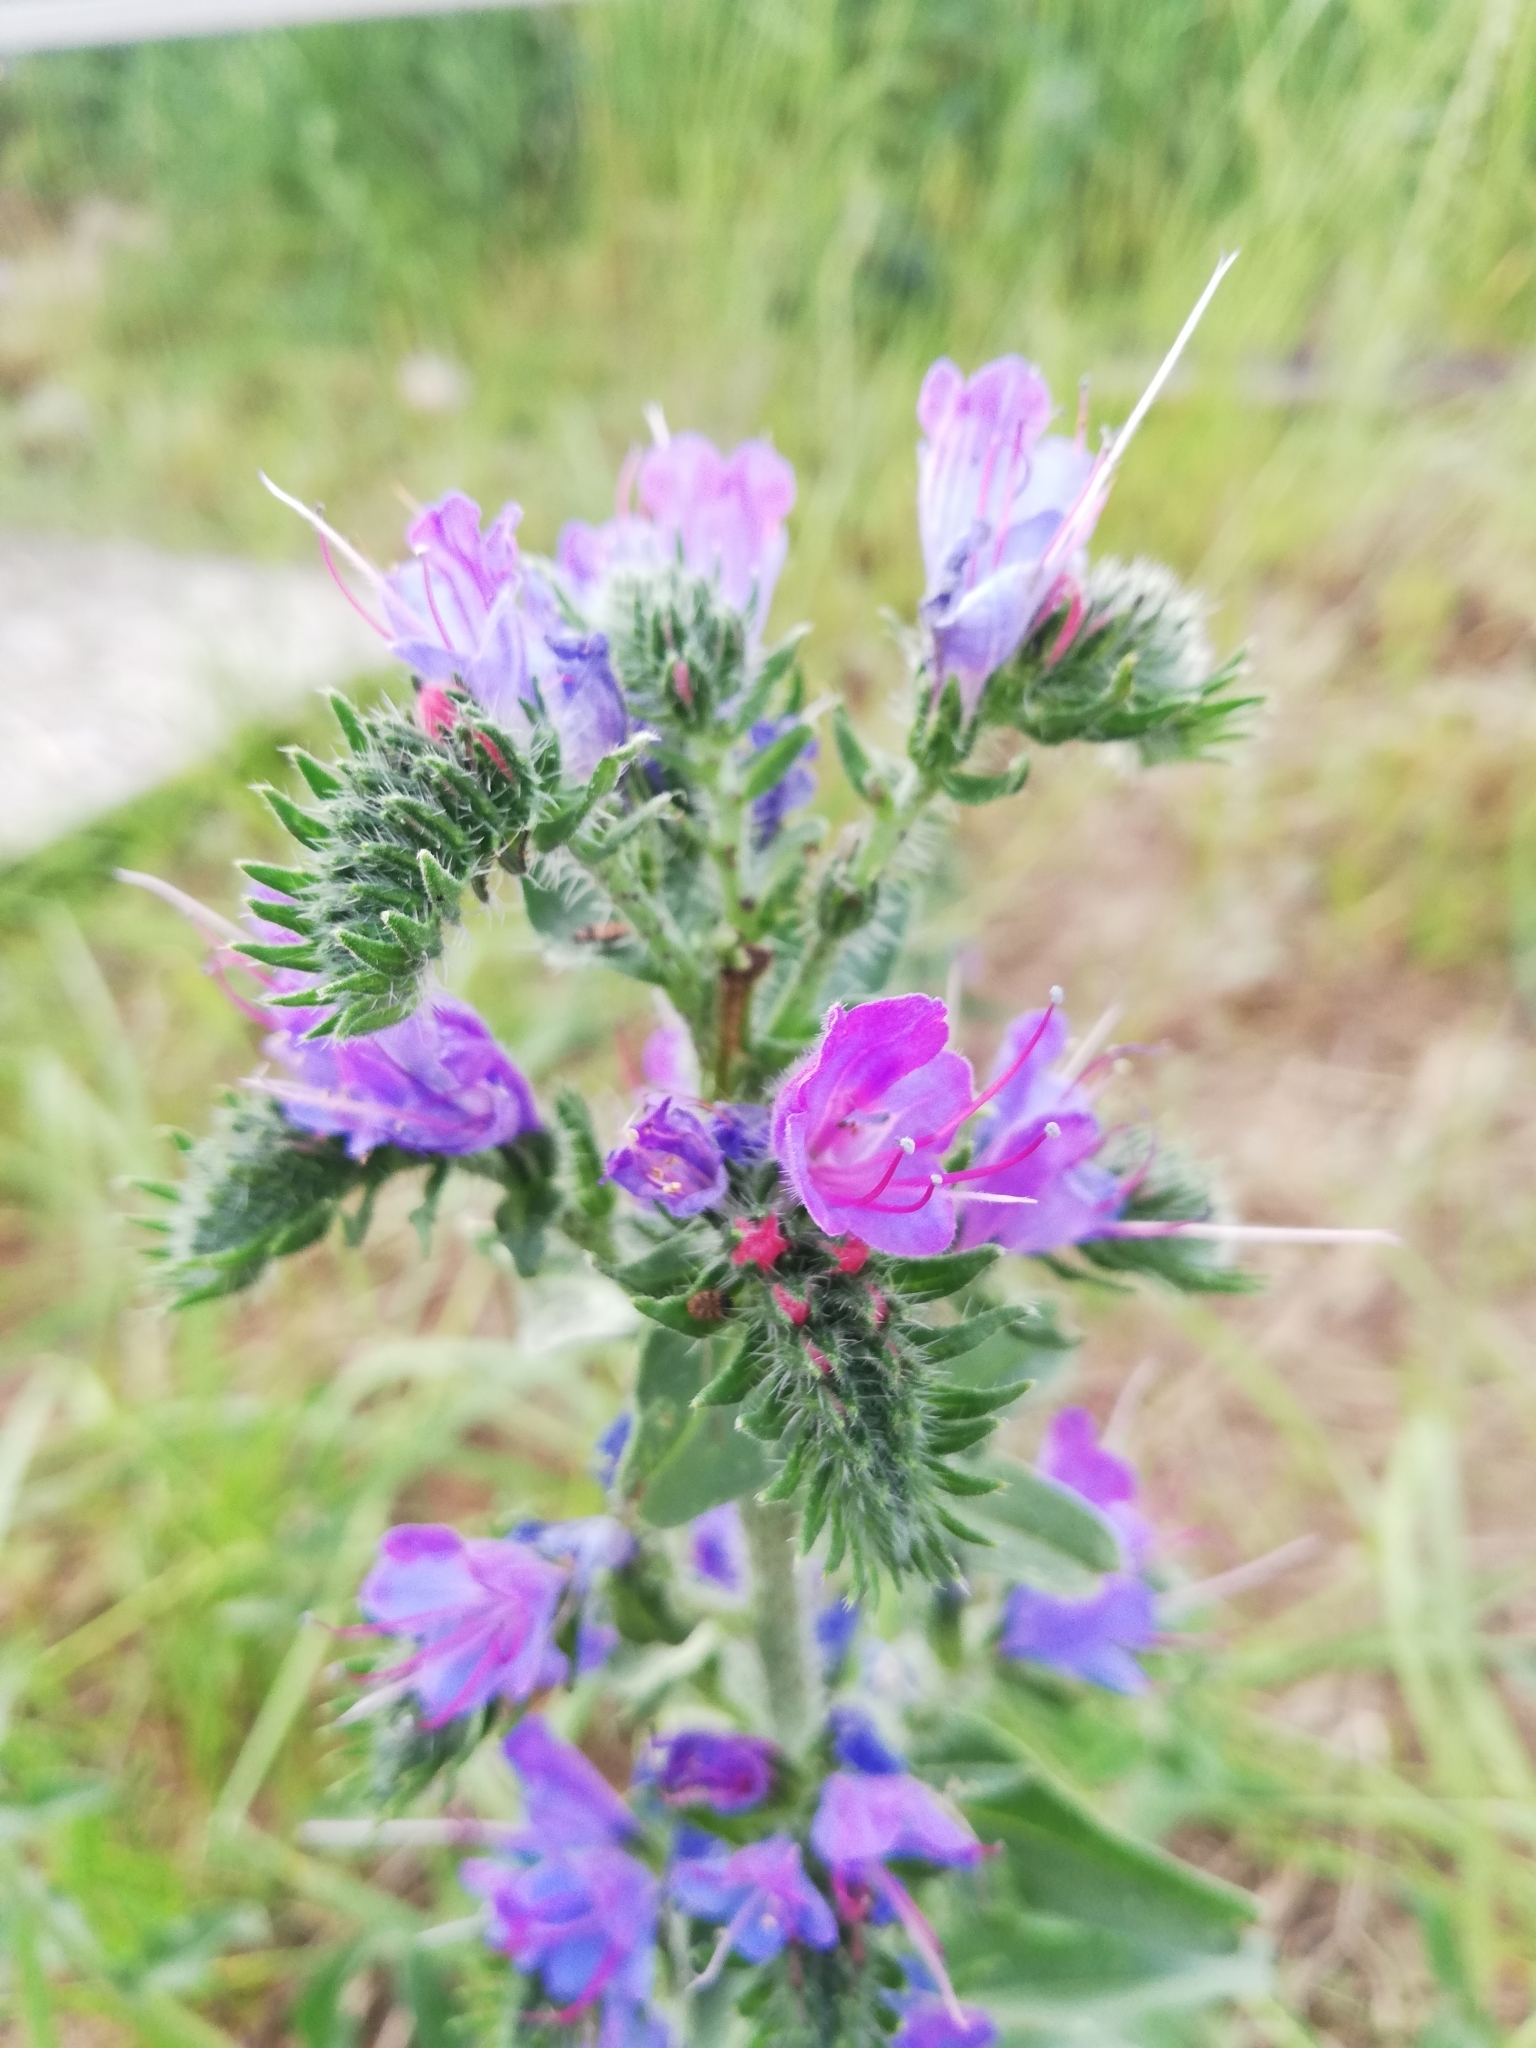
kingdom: Plantae
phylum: Tracheophyta
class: Magnoliopsida
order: Boraginales
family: Boraginaceae
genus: Echium
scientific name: Echium vulgare
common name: Common viper's bugloss
